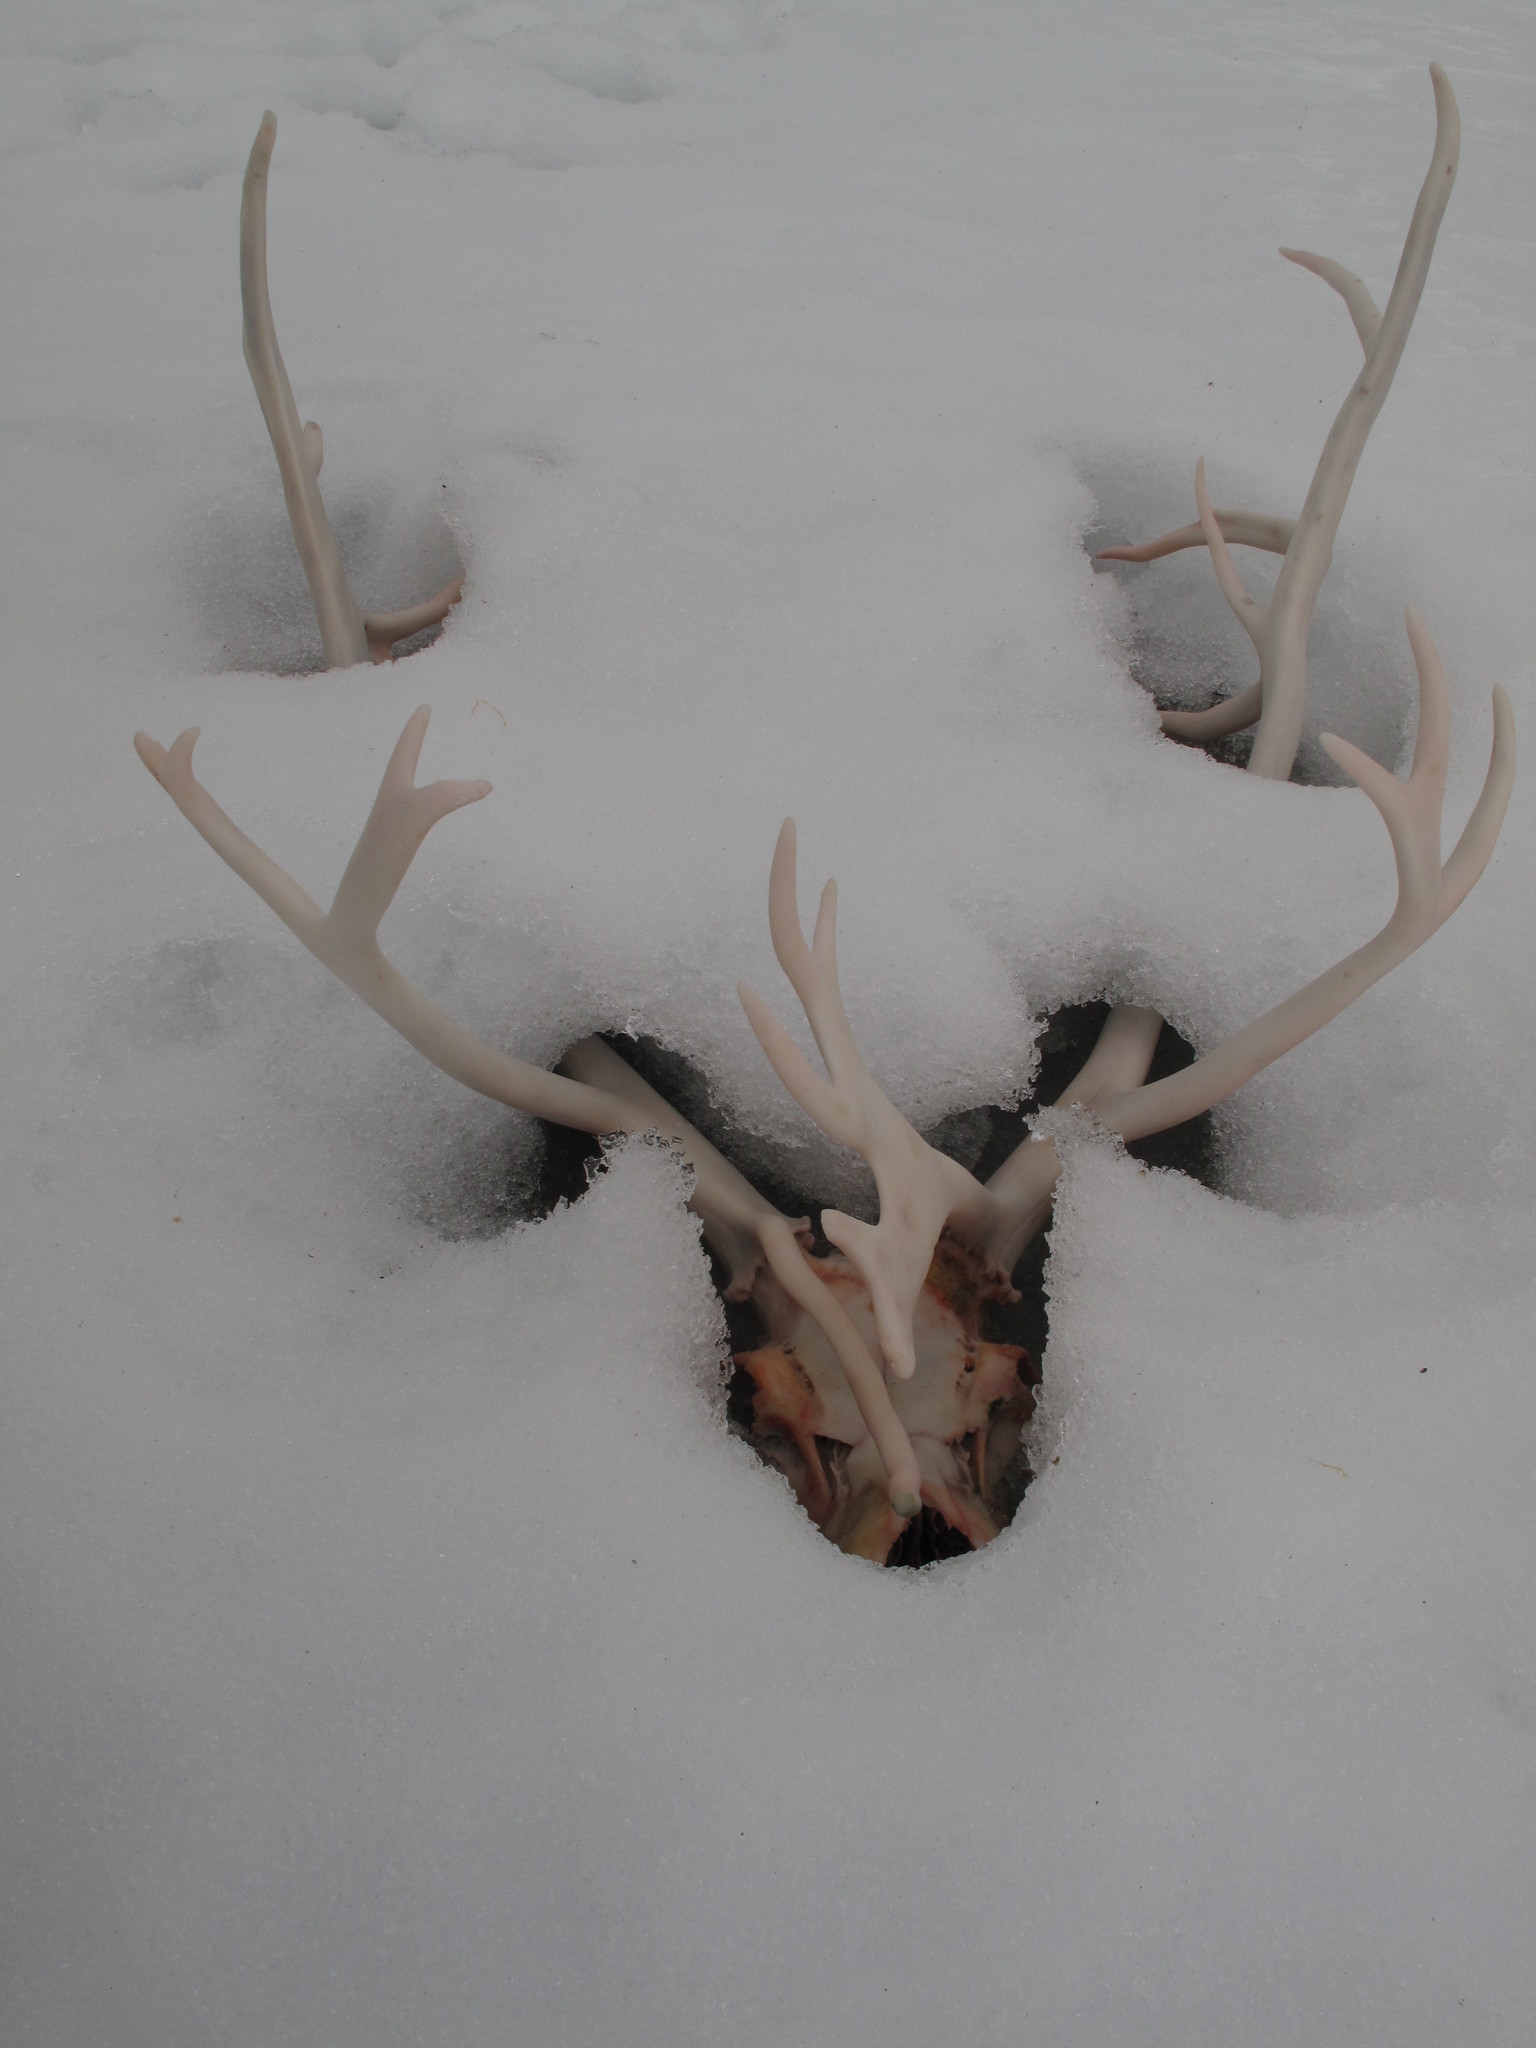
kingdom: Animalia
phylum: Chordata
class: Mammalia
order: Artiodactyla
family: Cervidae
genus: Rangifer
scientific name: Rangifer tarandus
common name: Reindeer
